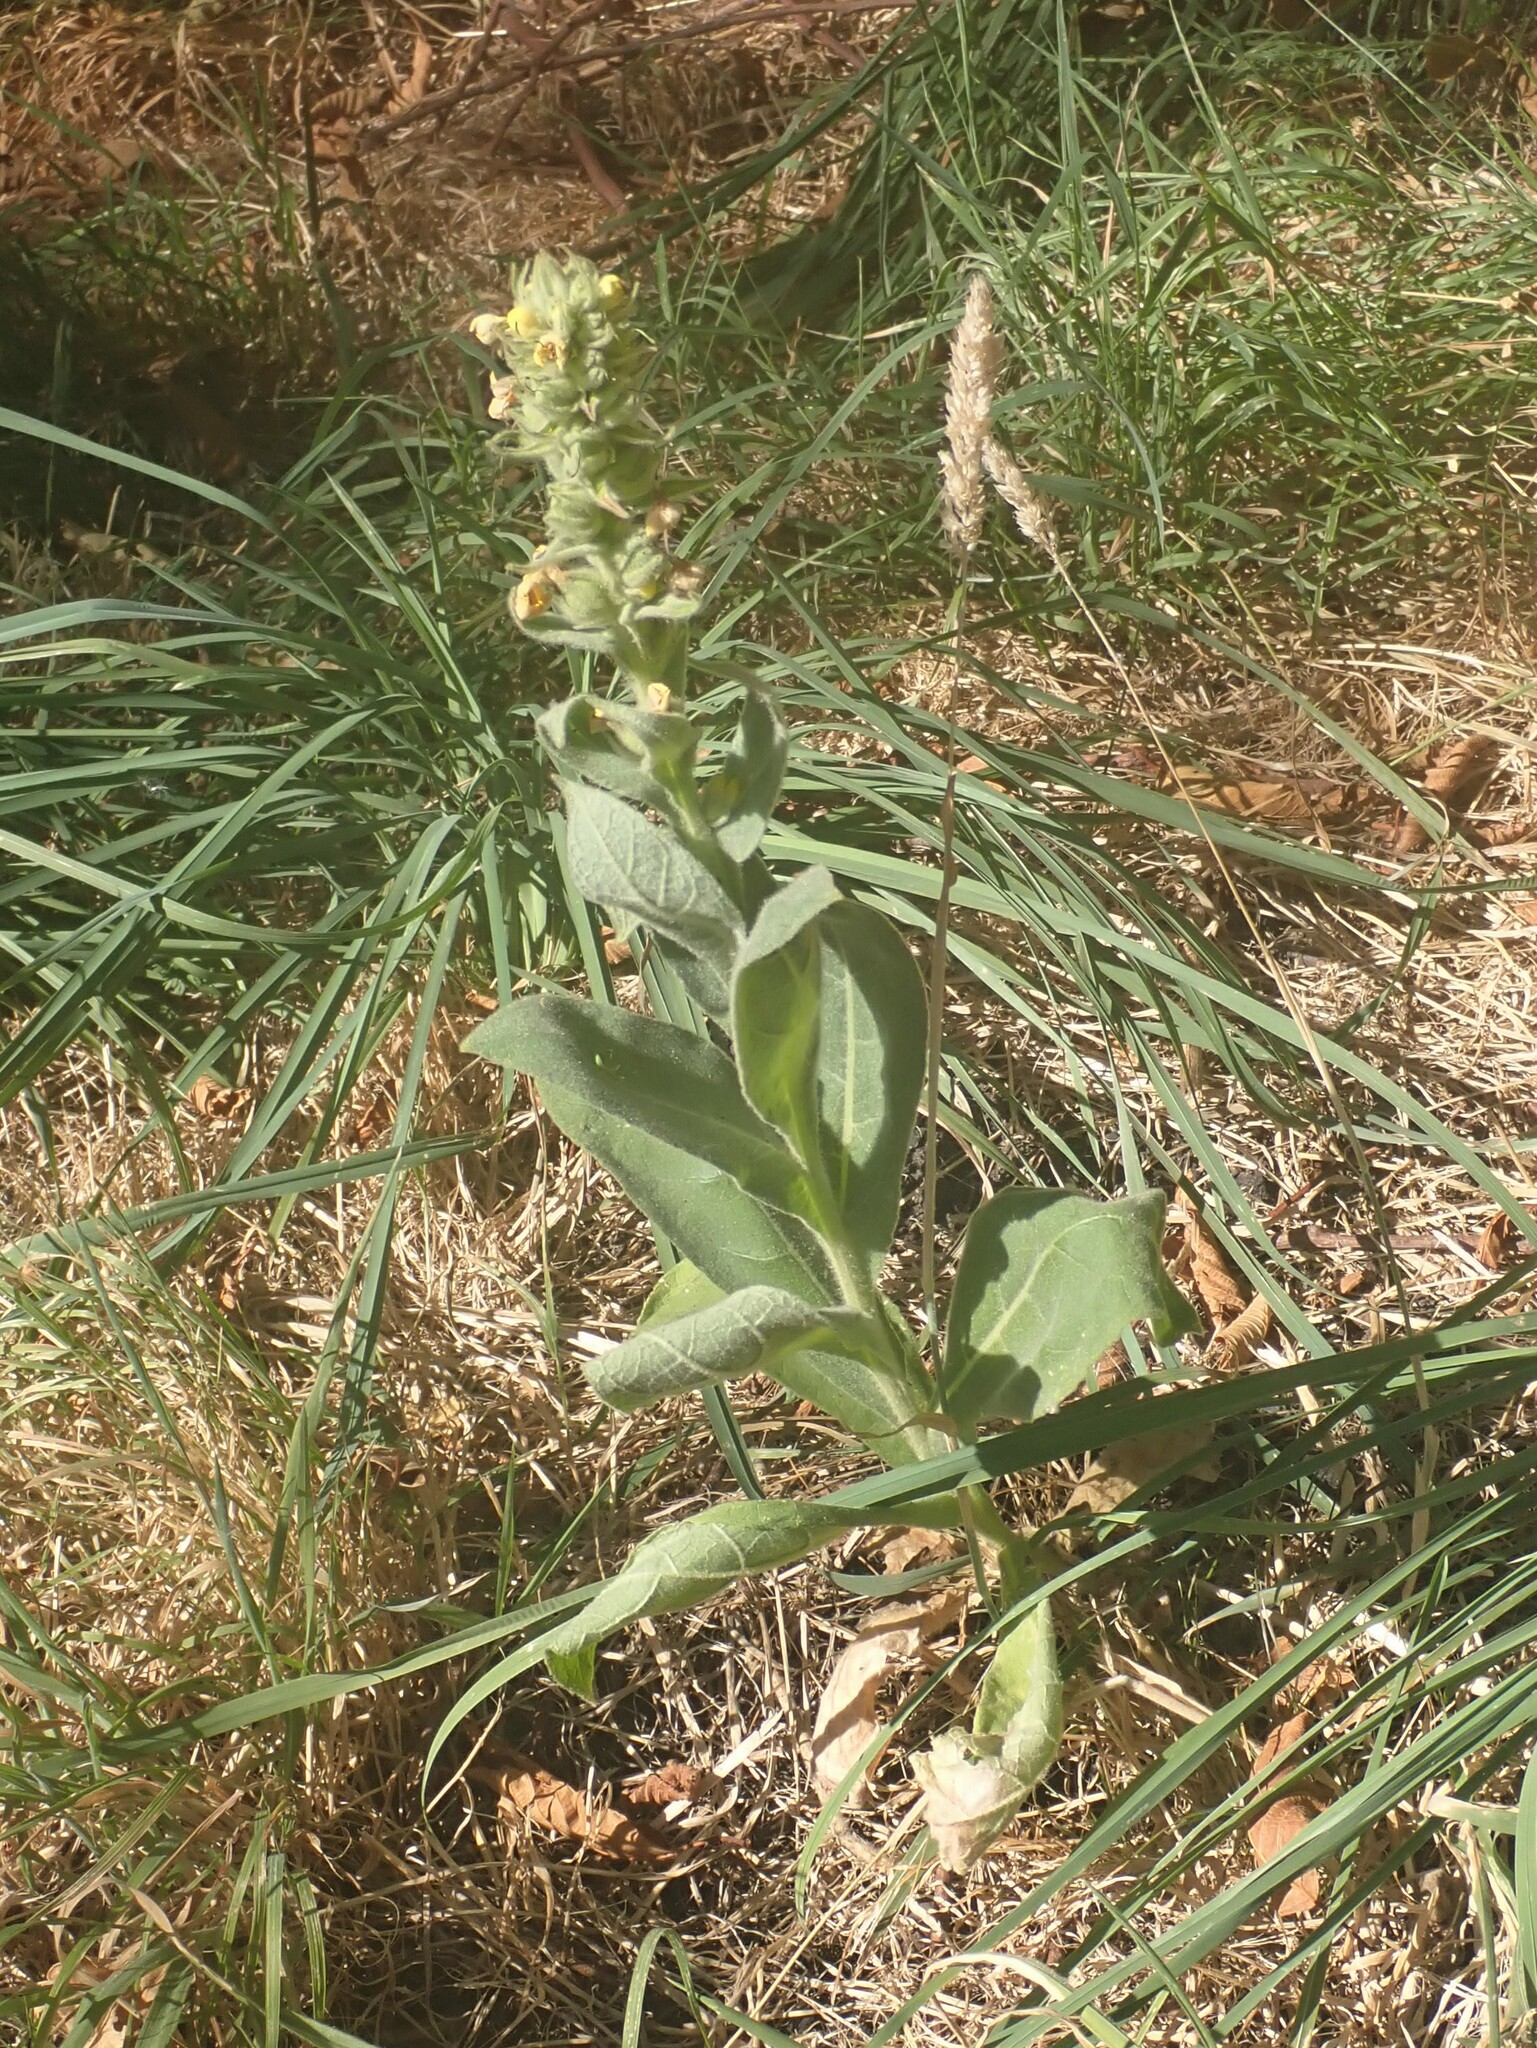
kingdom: Plantae
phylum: Tracheophyta
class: Magnoliopsida
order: Lamiales
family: Scrophulariaceae
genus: Verbascum
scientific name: Verbascum thapsus
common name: Common mullein
